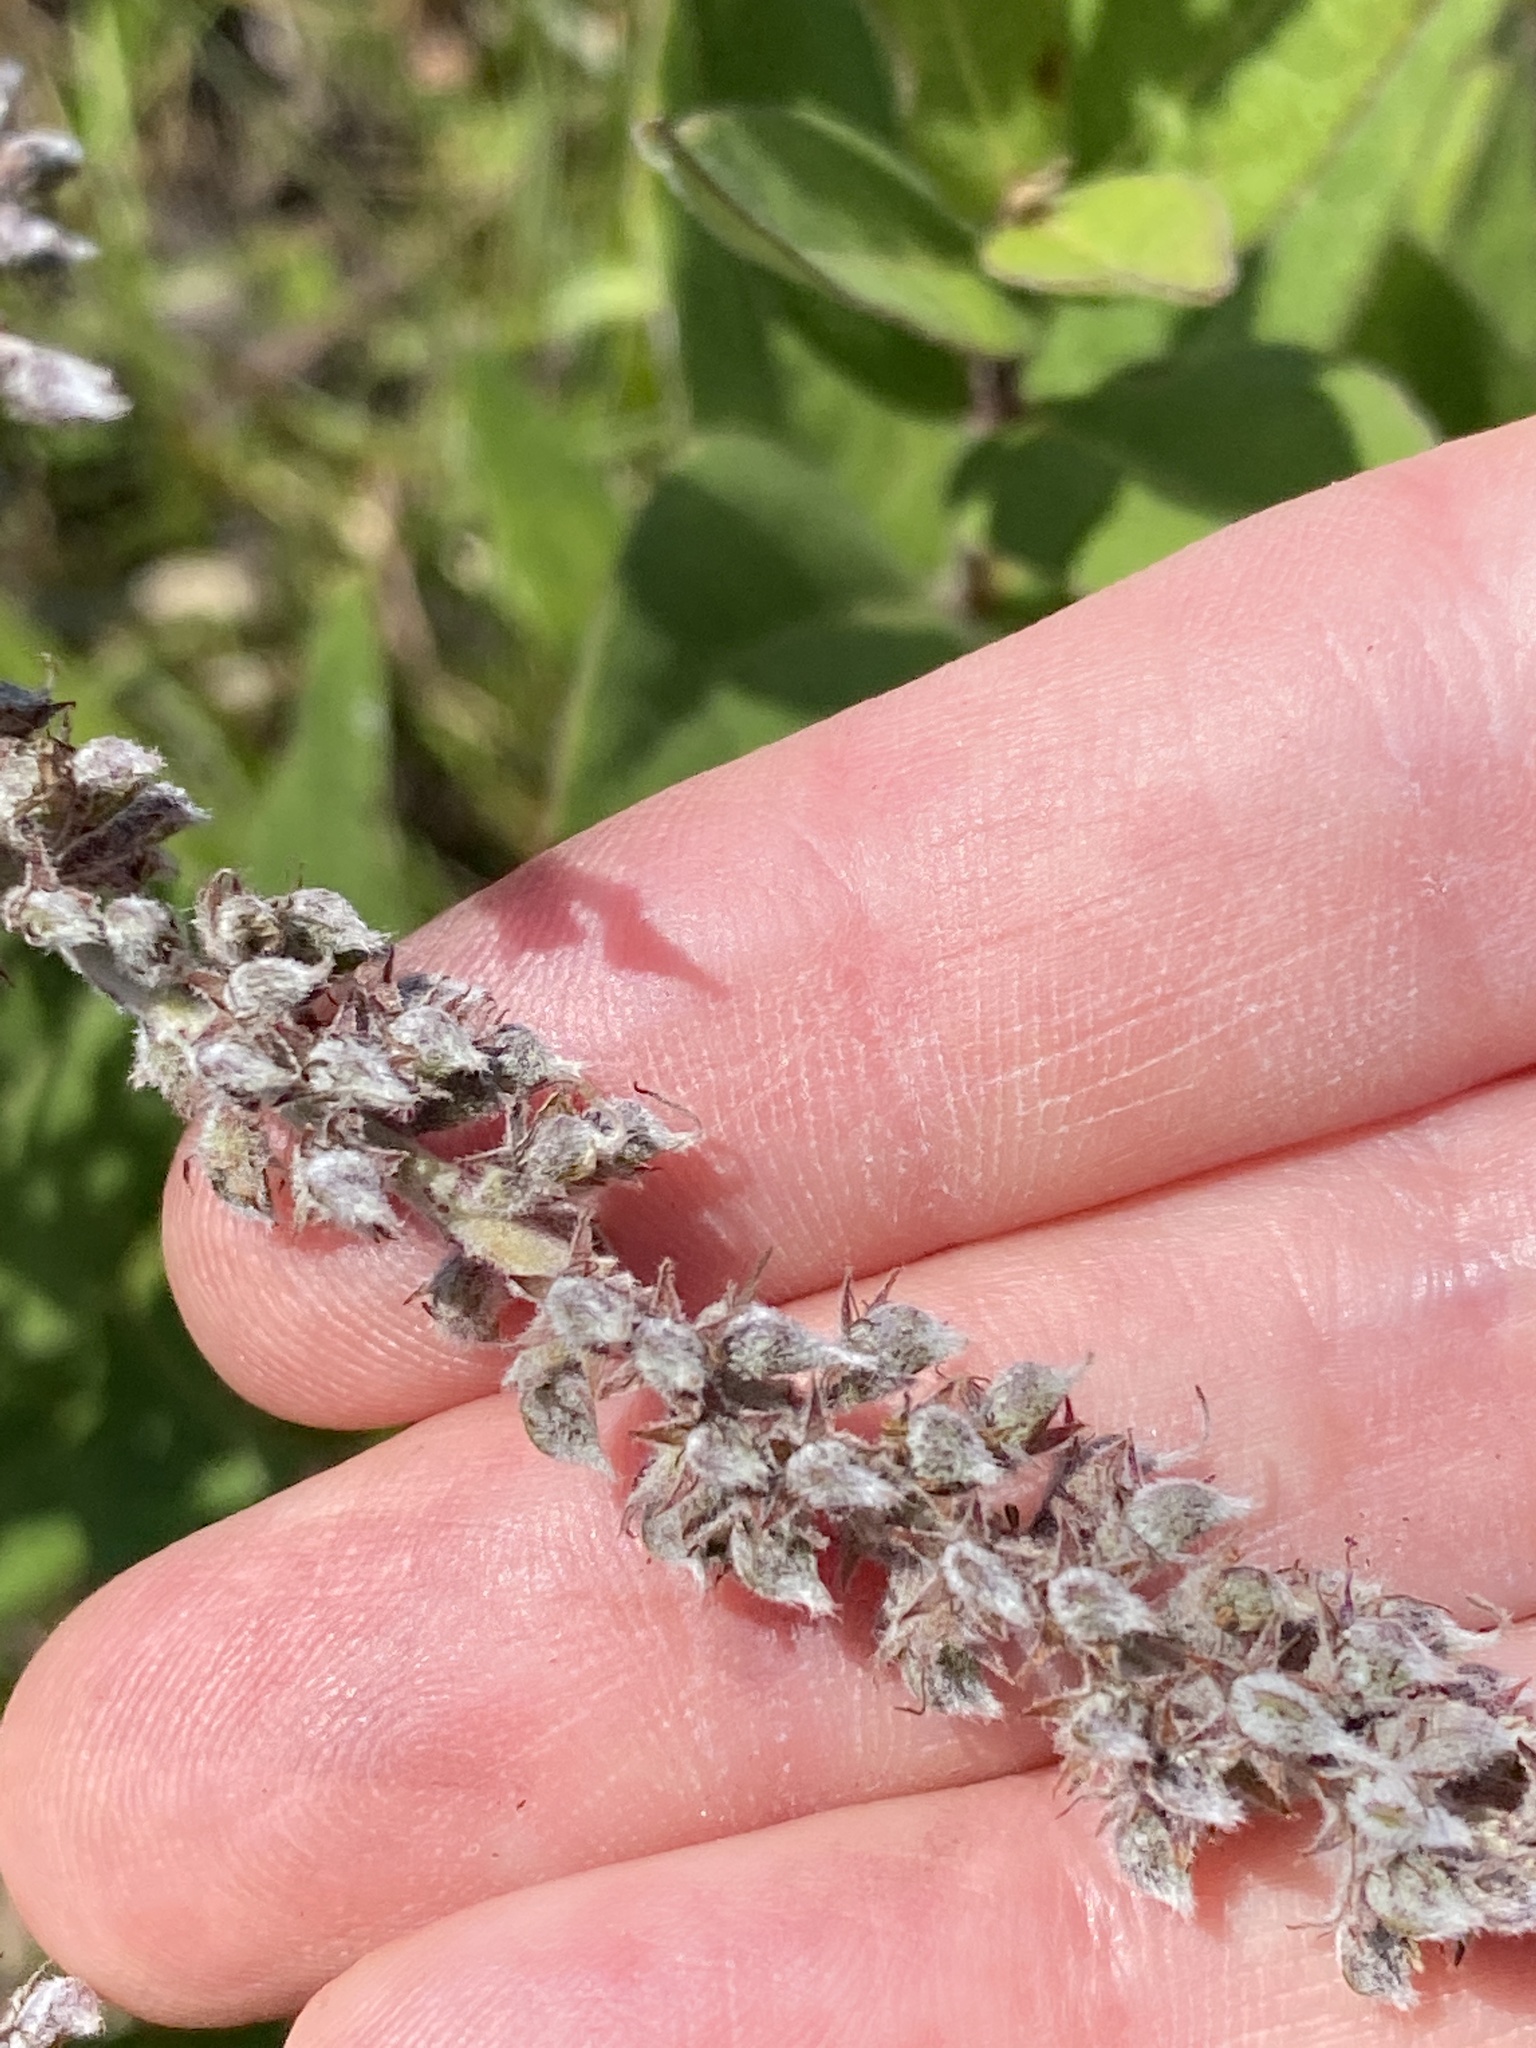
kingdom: Plantae
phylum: Tracheophyta
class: Magnoliopsida
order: Fabales
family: Fabaceae
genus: Amorpha
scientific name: Amorpha canescens
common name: Leadplant
